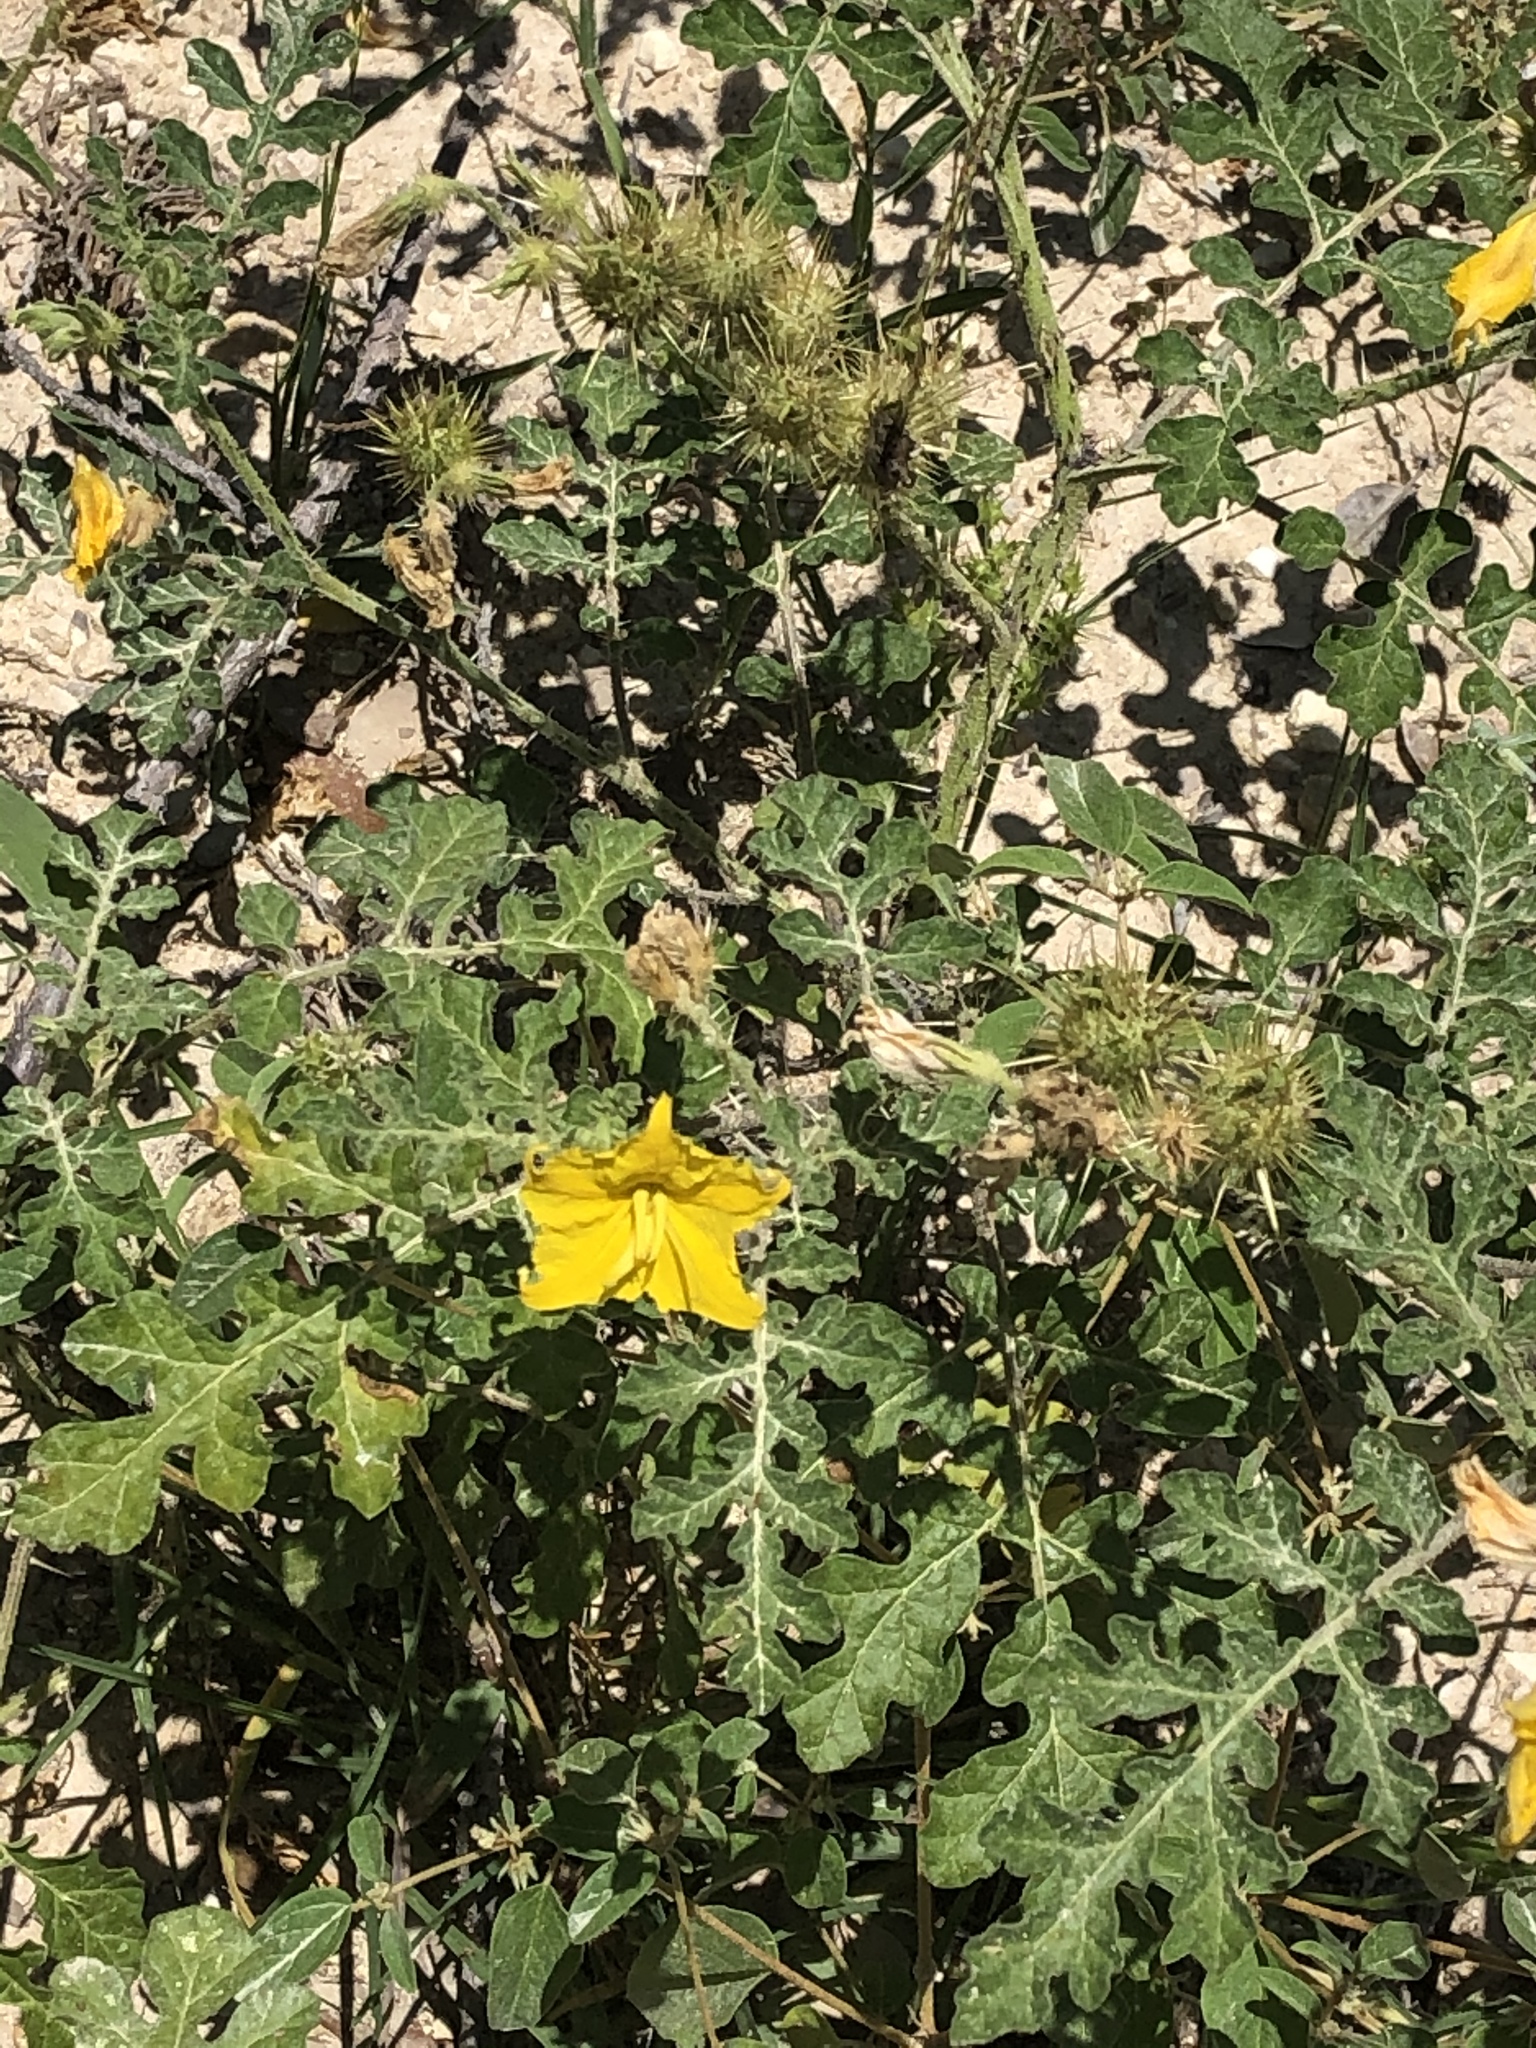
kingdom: Plantae
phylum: Tracheophyta
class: Magnoliopsida
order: Solanales
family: Solanaceae
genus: Solanum
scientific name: Solanum angustifolium
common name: Buffalobur nightshade
